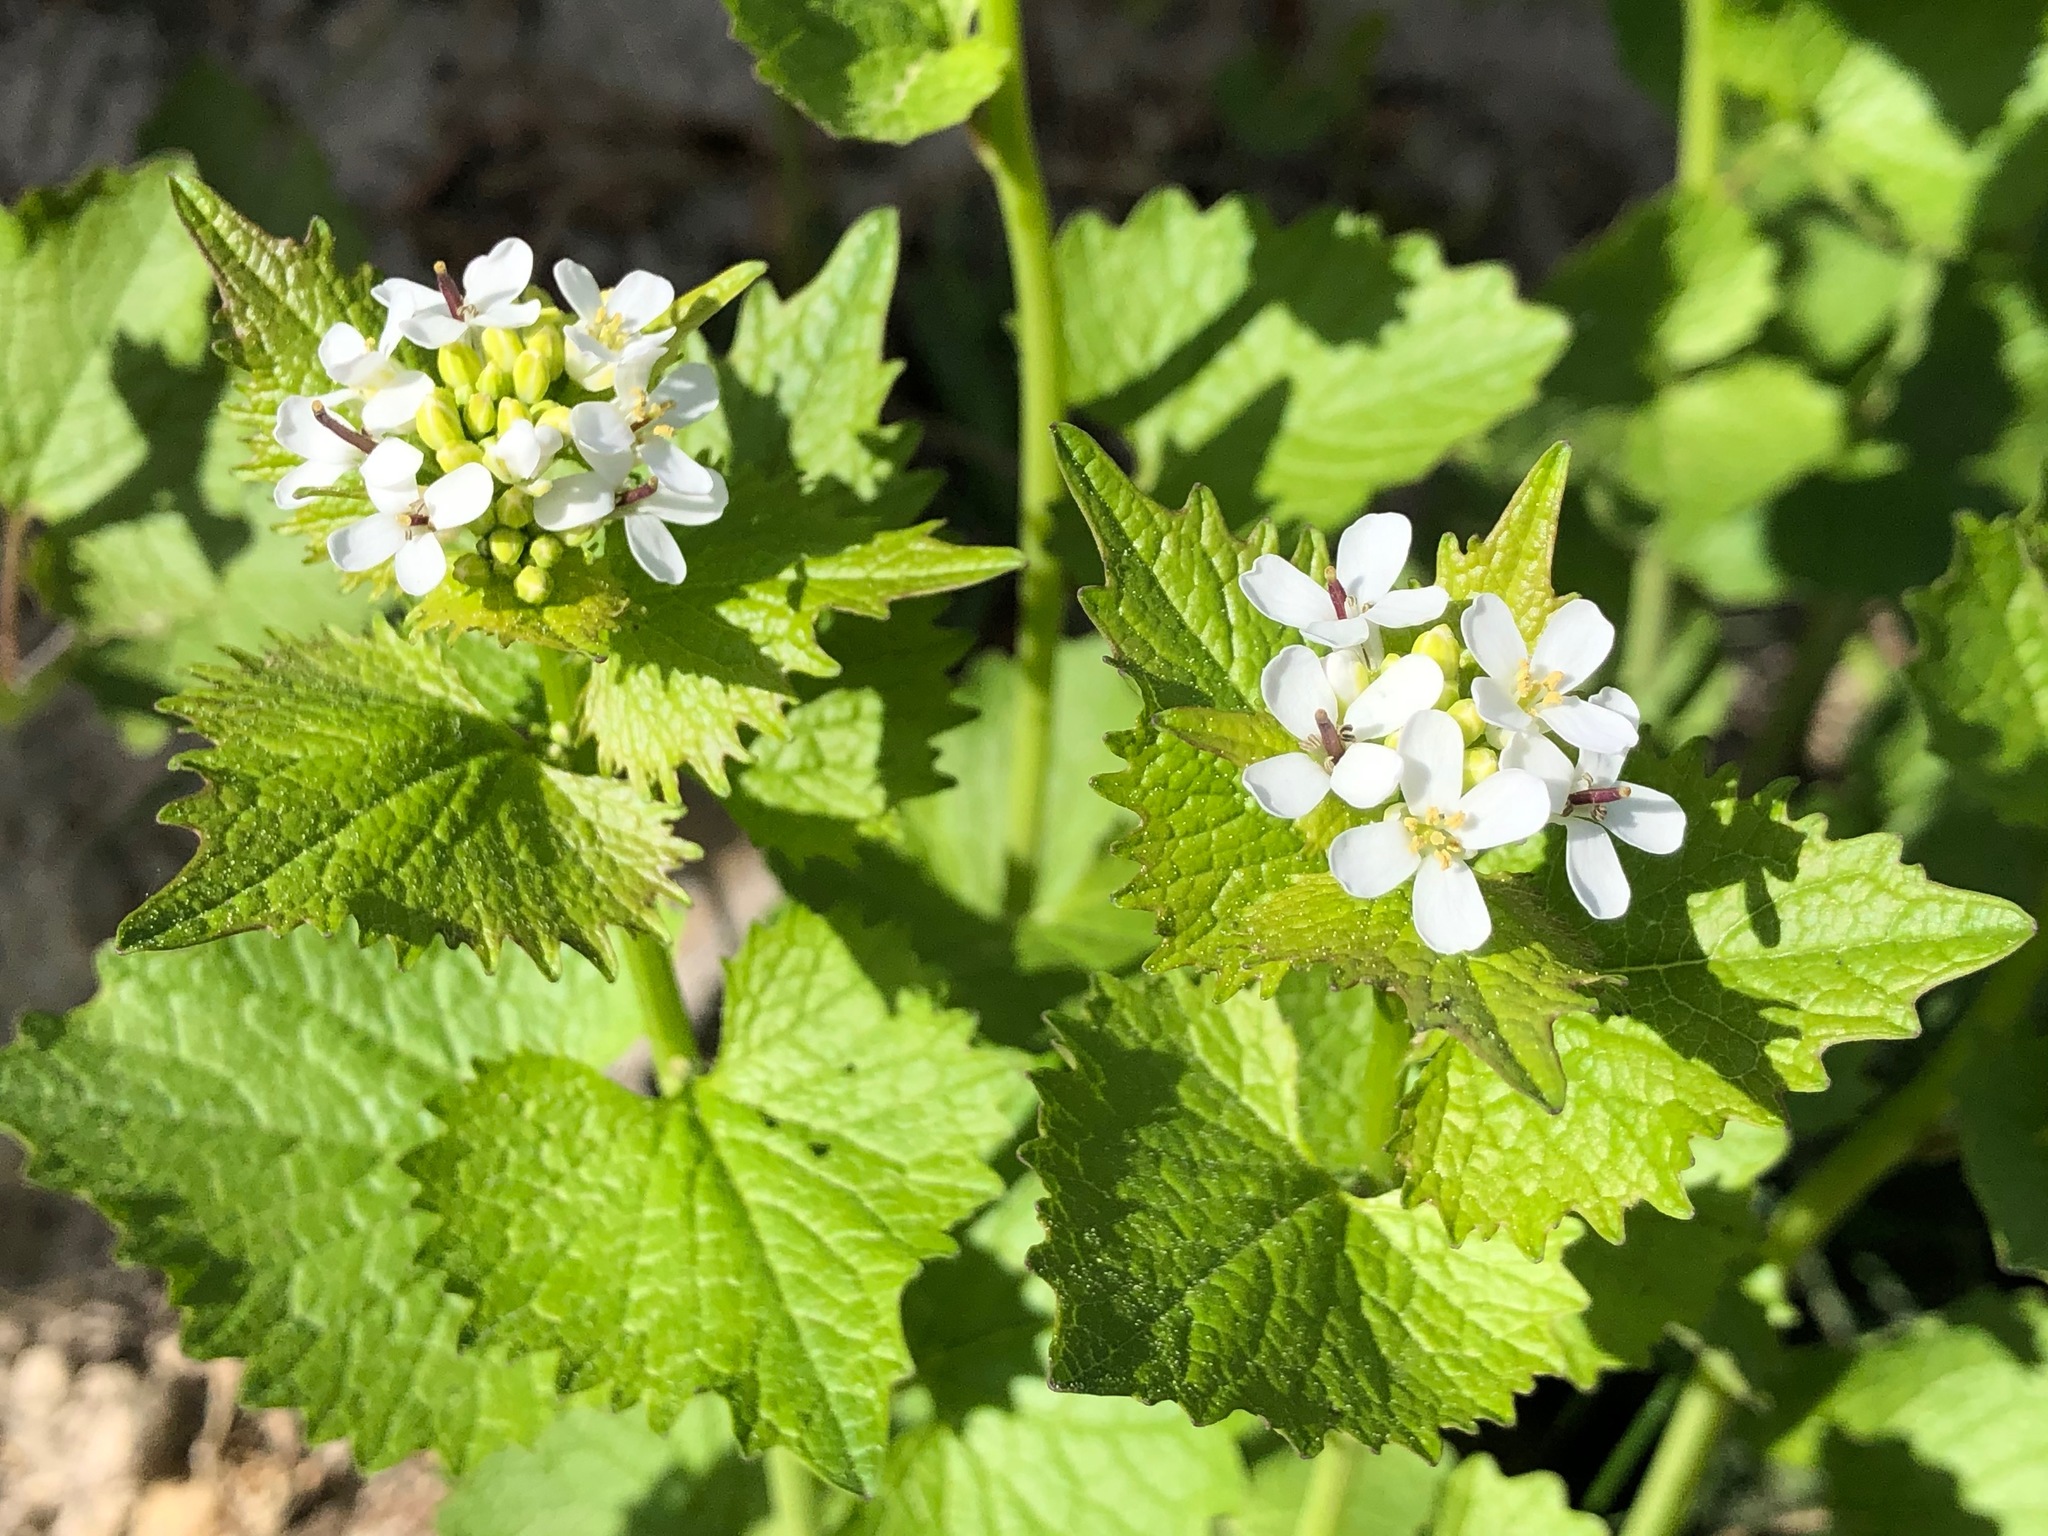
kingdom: Plantae
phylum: Tracheophyta
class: Magnoliopsida
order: Brassicales
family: Brassicaceae
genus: Alliaria
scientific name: Alliaria petiolata
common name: Garlic mustard
